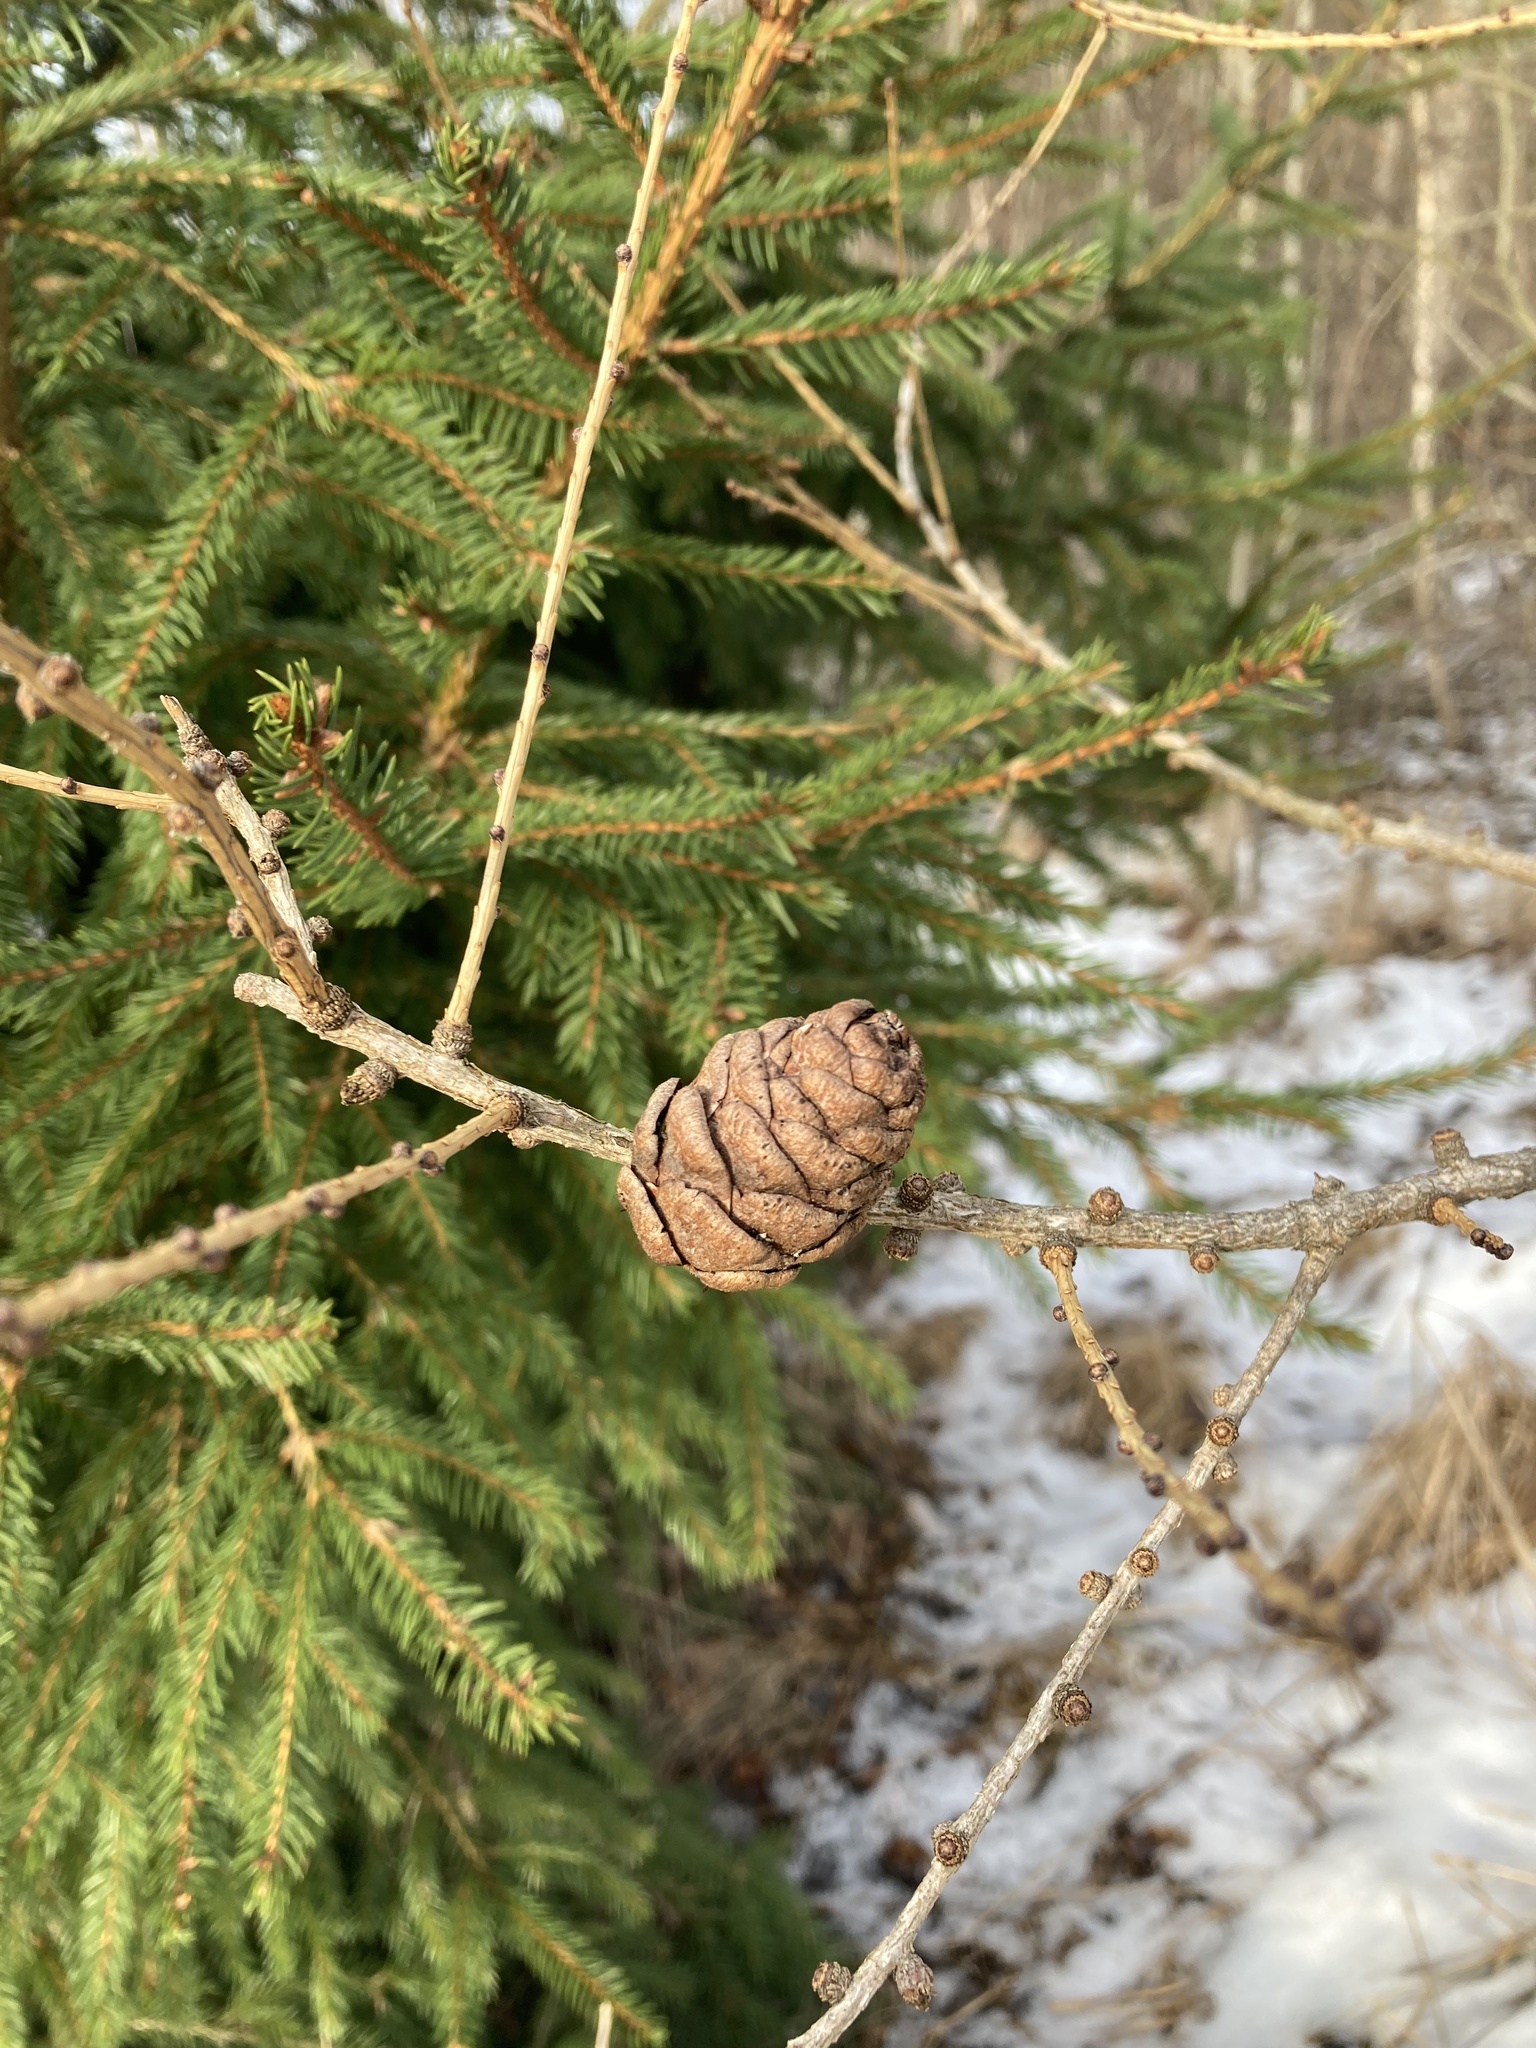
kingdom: Plantae
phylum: Tracheophyta
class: Pinopsida
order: Pinales
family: Pinaceae
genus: Larix
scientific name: Larix decidua
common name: European larch
